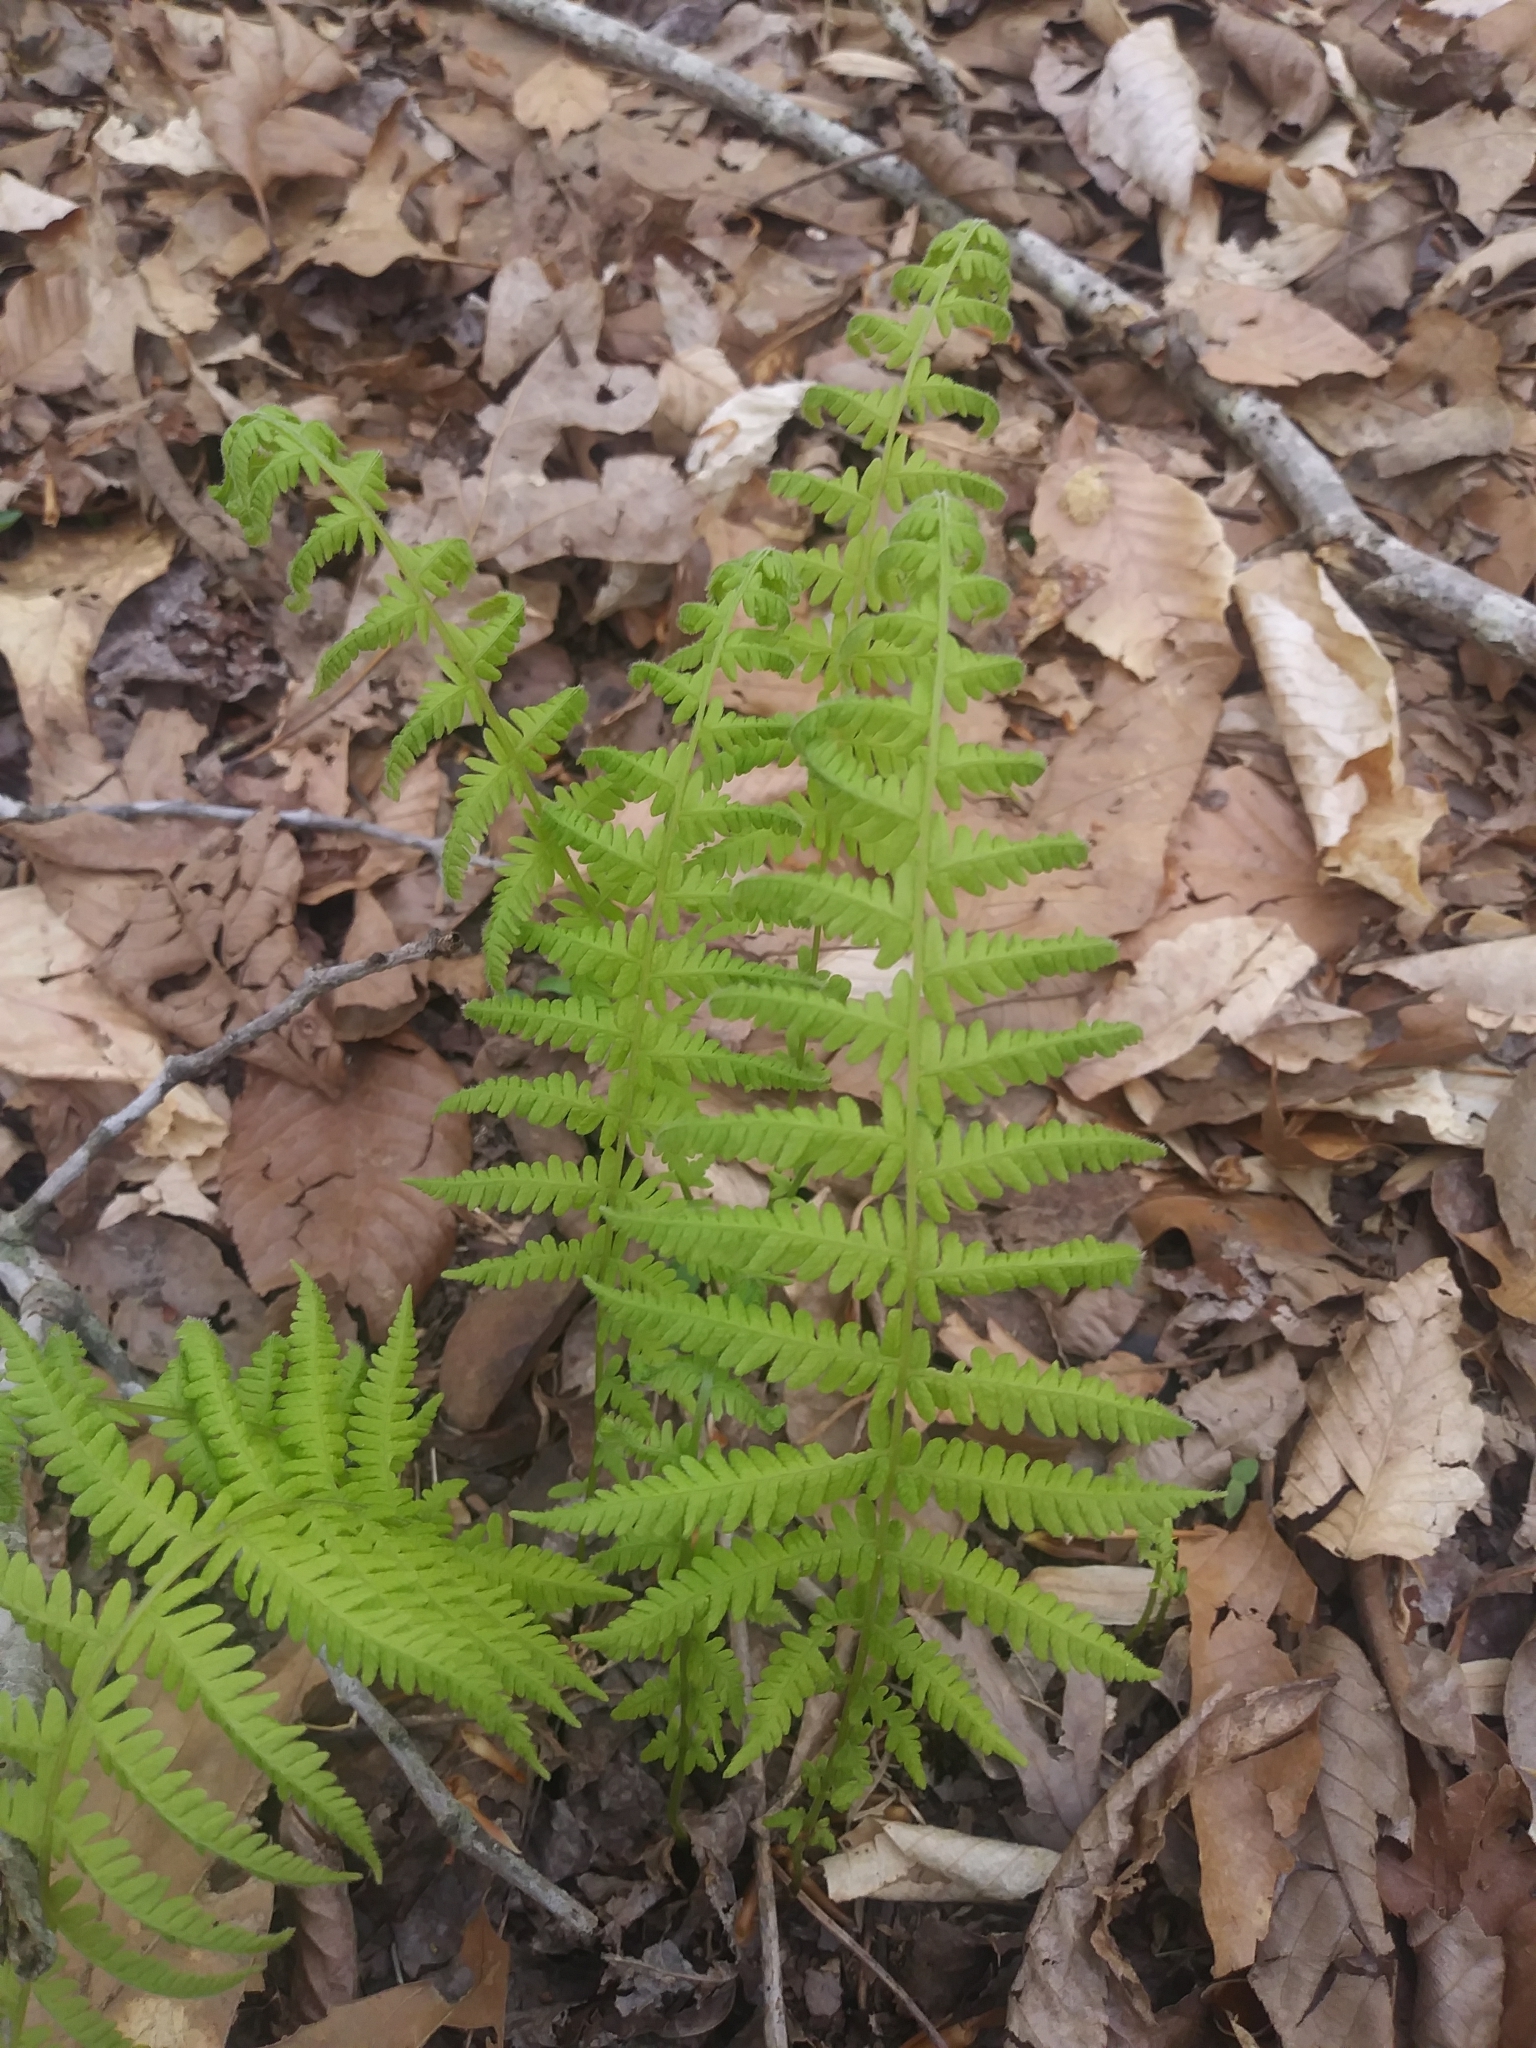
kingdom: Plantae
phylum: Tracheophyta
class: Polypodiopsida
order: Polypodiales
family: Thelypteridaceae
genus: Amauropelta
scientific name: Amauropelta noveboracensis
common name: New york fern
